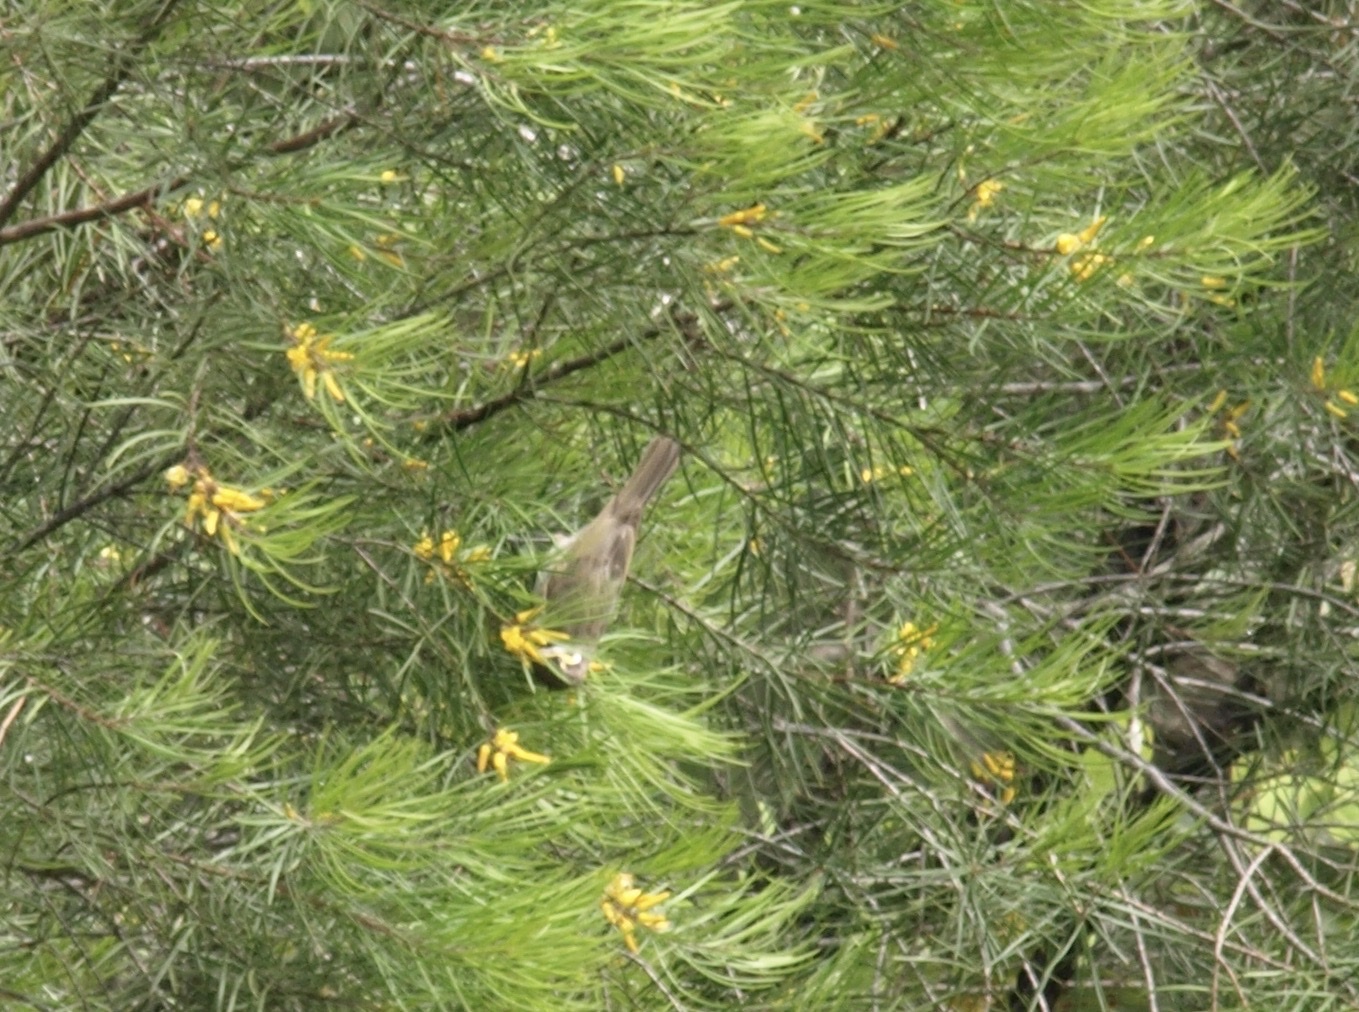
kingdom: Animalia
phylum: Chordata
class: Aves
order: Passeriformes
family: Meliphagidae
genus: Caligavis
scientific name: Caligavis chrysops
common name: Yellow-faced honeyeater
